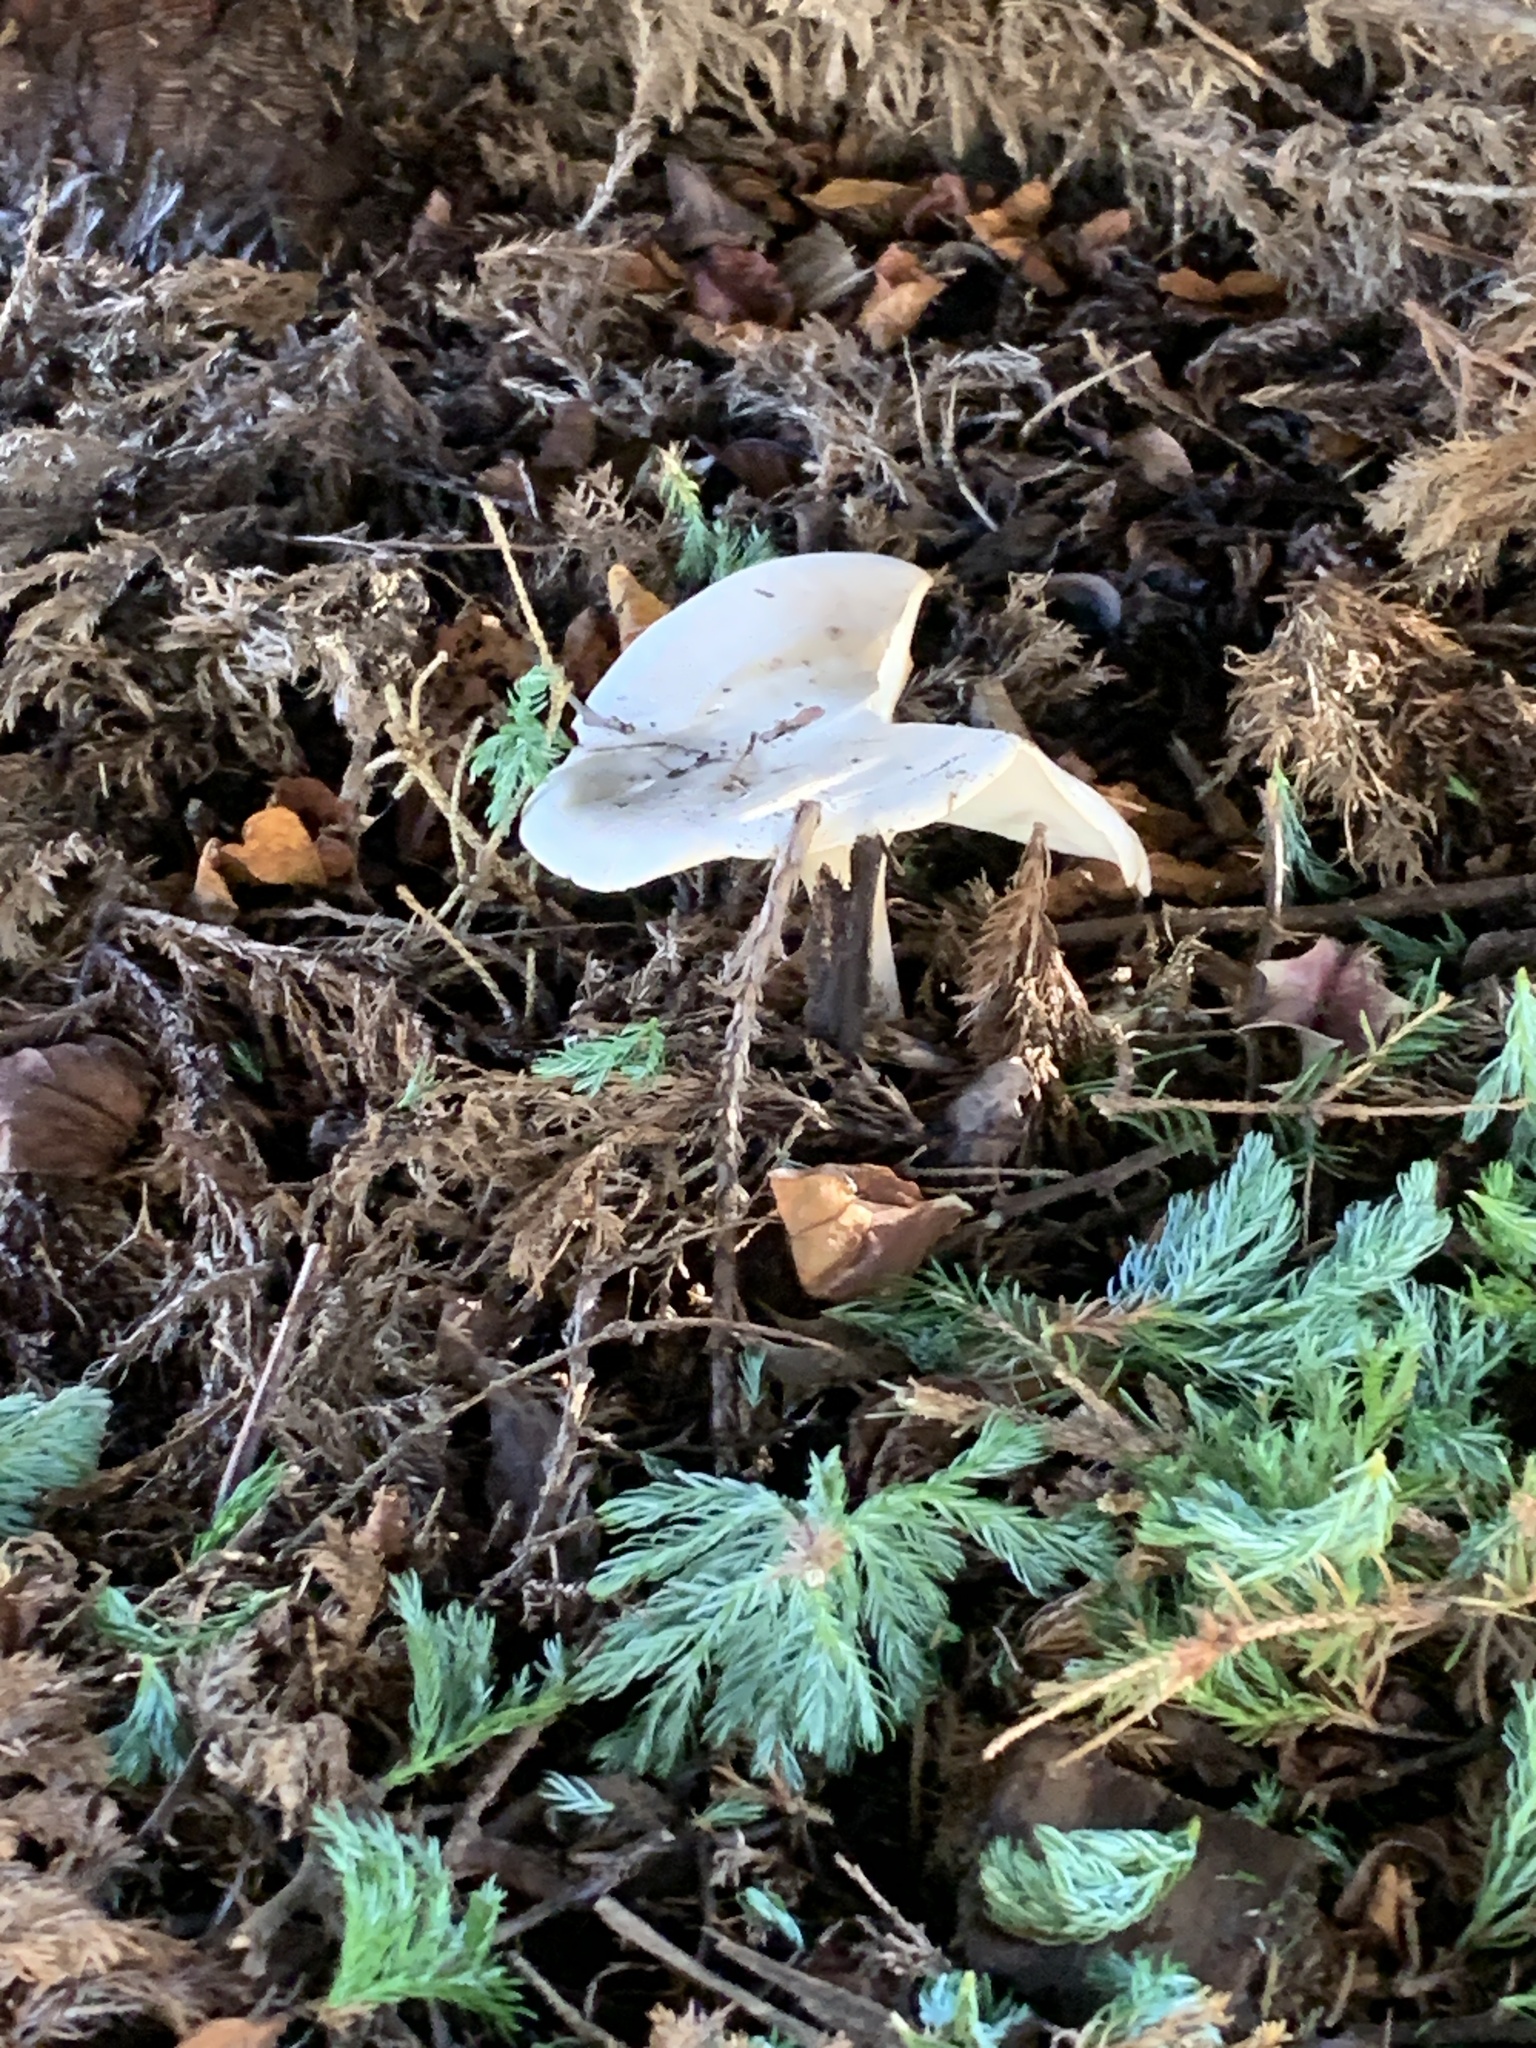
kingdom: Fungi
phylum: Basidiomycota
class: Agaricomycetes
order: Agaricales
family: Tricholomataceae
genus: Clitocybe
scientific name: Clitocybe nebularis
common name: Clouded agaric
